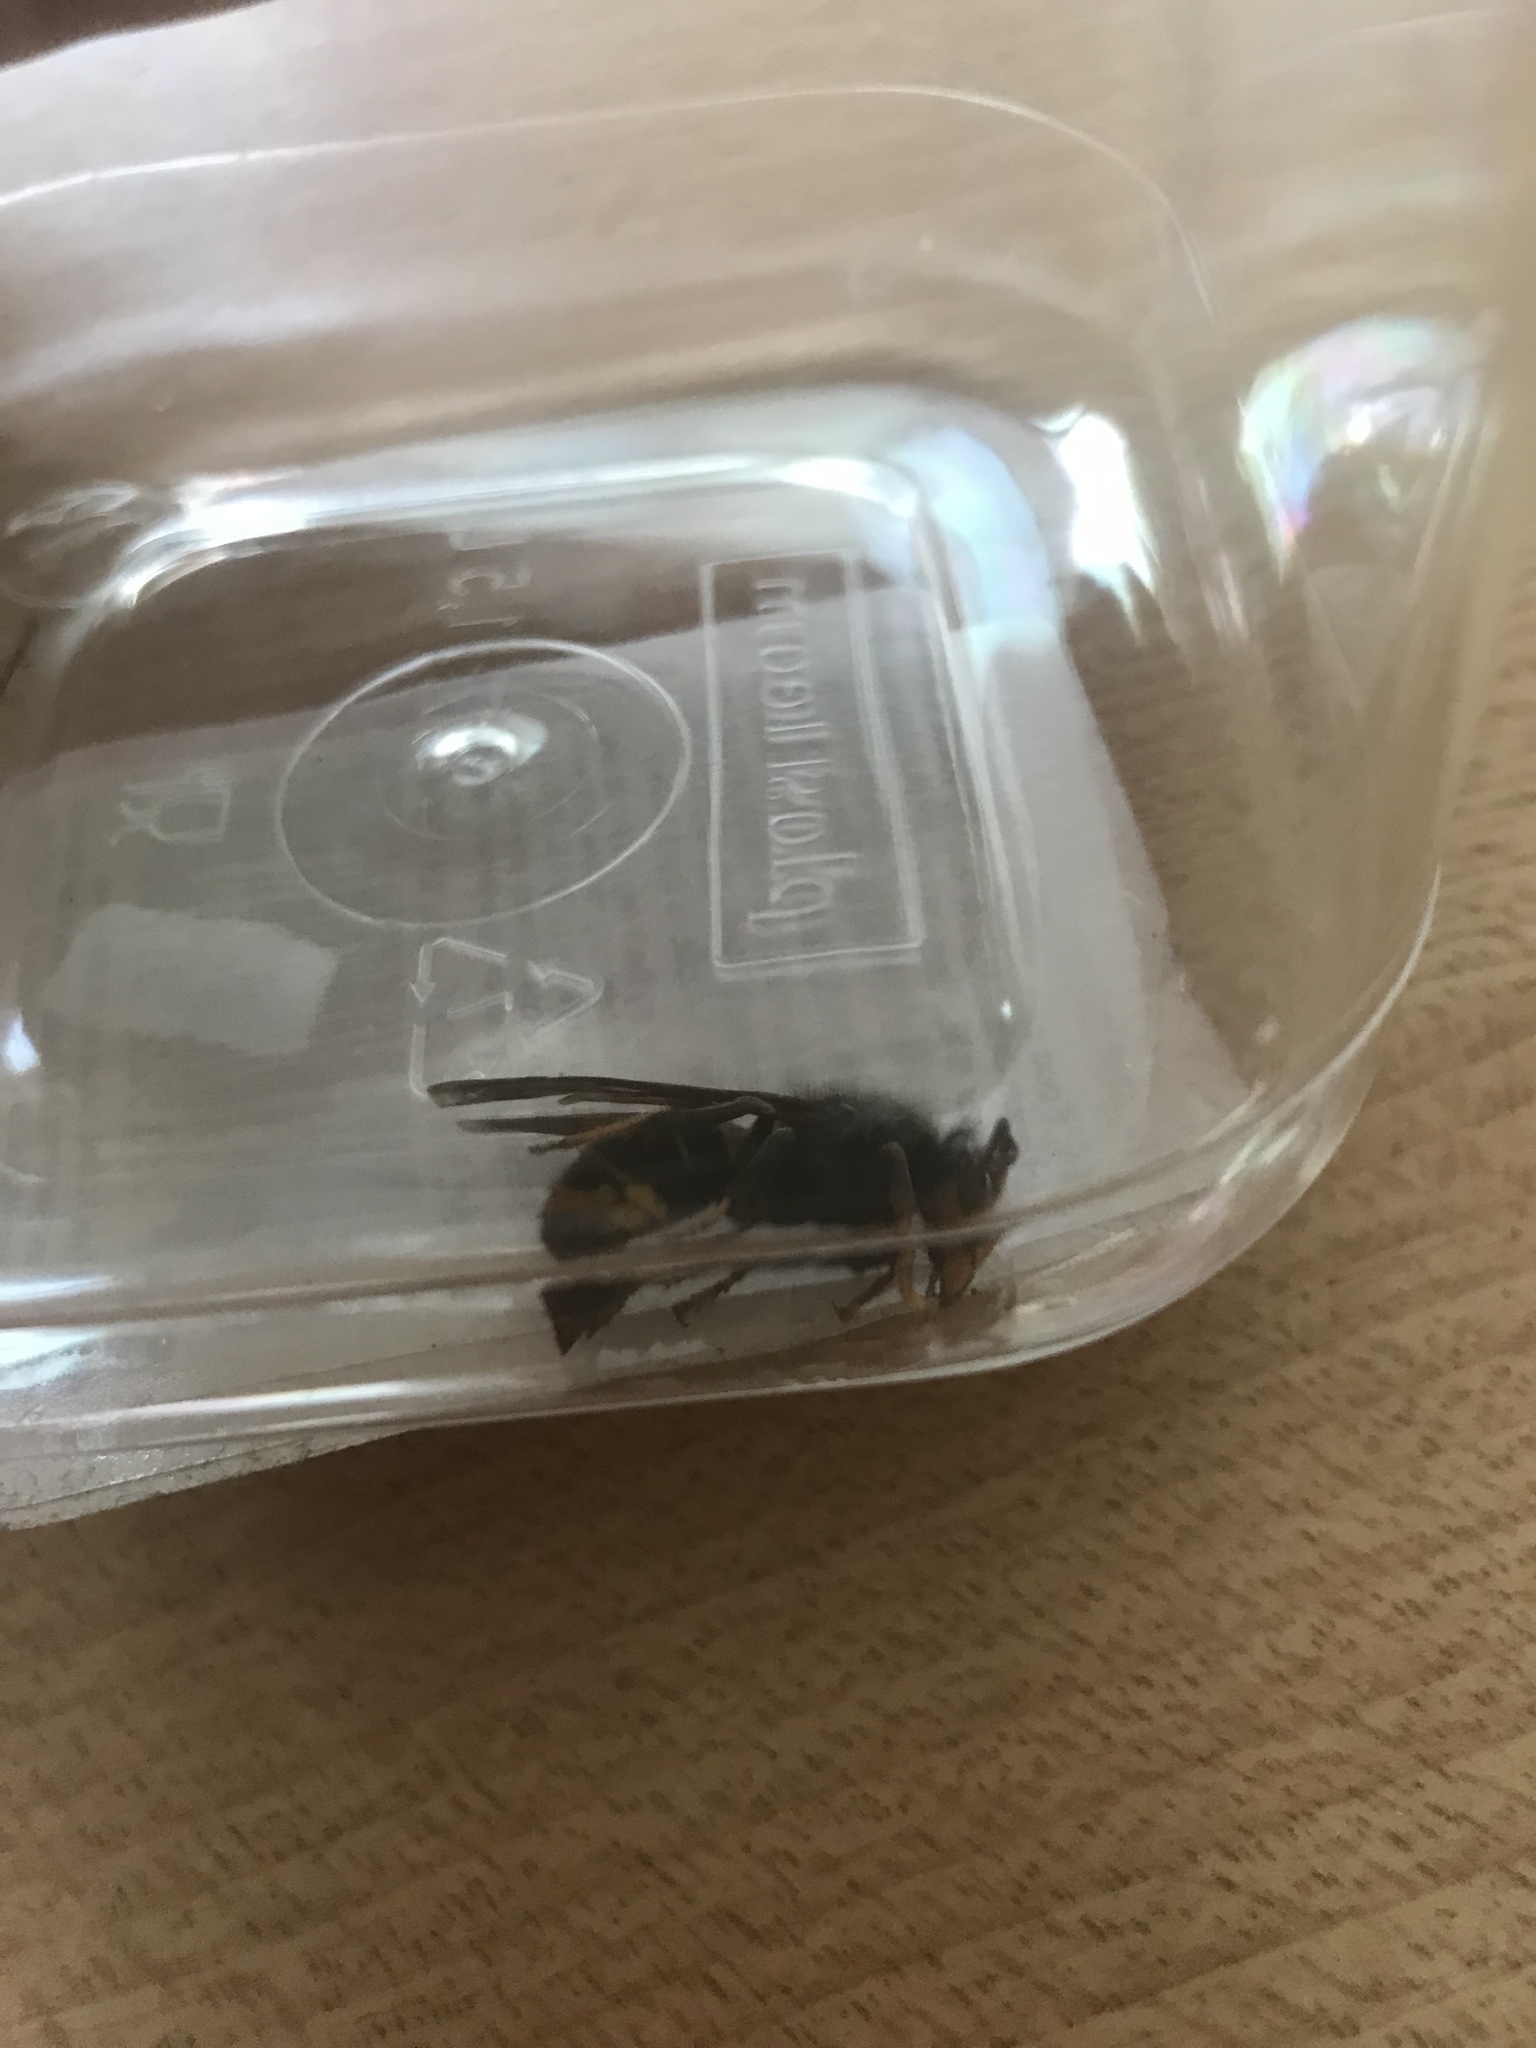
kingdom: Animalia
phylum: Arthropoda
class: Insecta
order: Hymenoptera
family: Vespidae
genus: Vespa
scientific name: Vespa velutina
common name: Asian hornet
